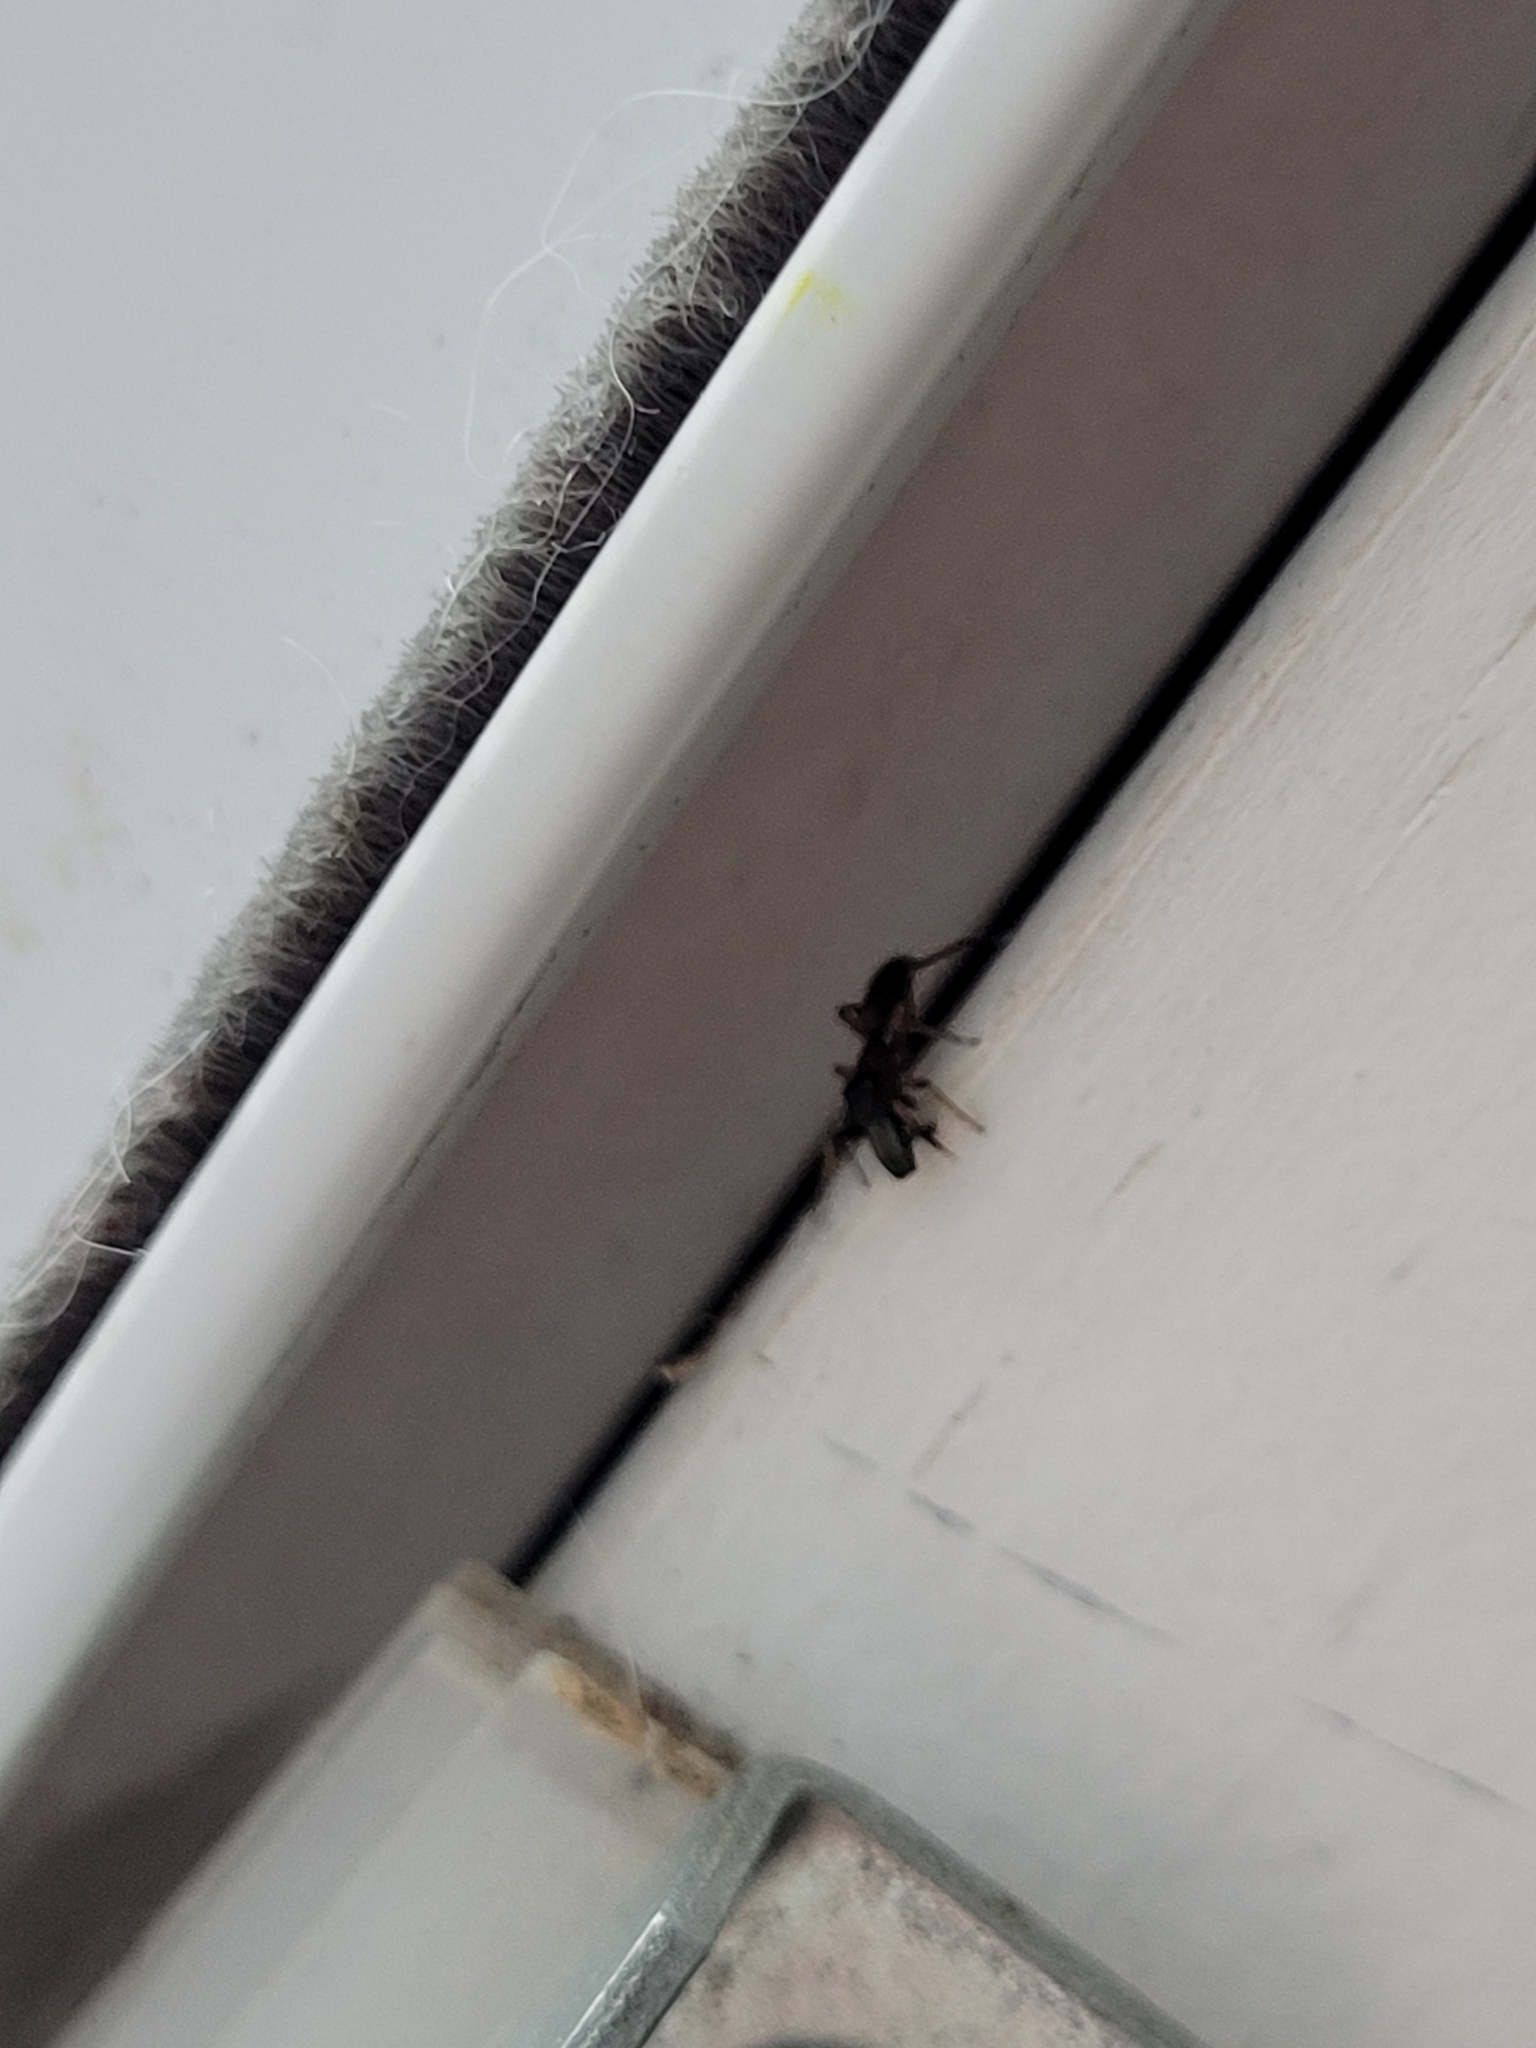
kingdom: Animalia
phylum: Arthropoda
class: Arachnida
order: Araneae
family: Salticidae
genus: Myrmarachne
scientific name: Myrmarachne formicaria
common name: Ant mimic jumping spider
